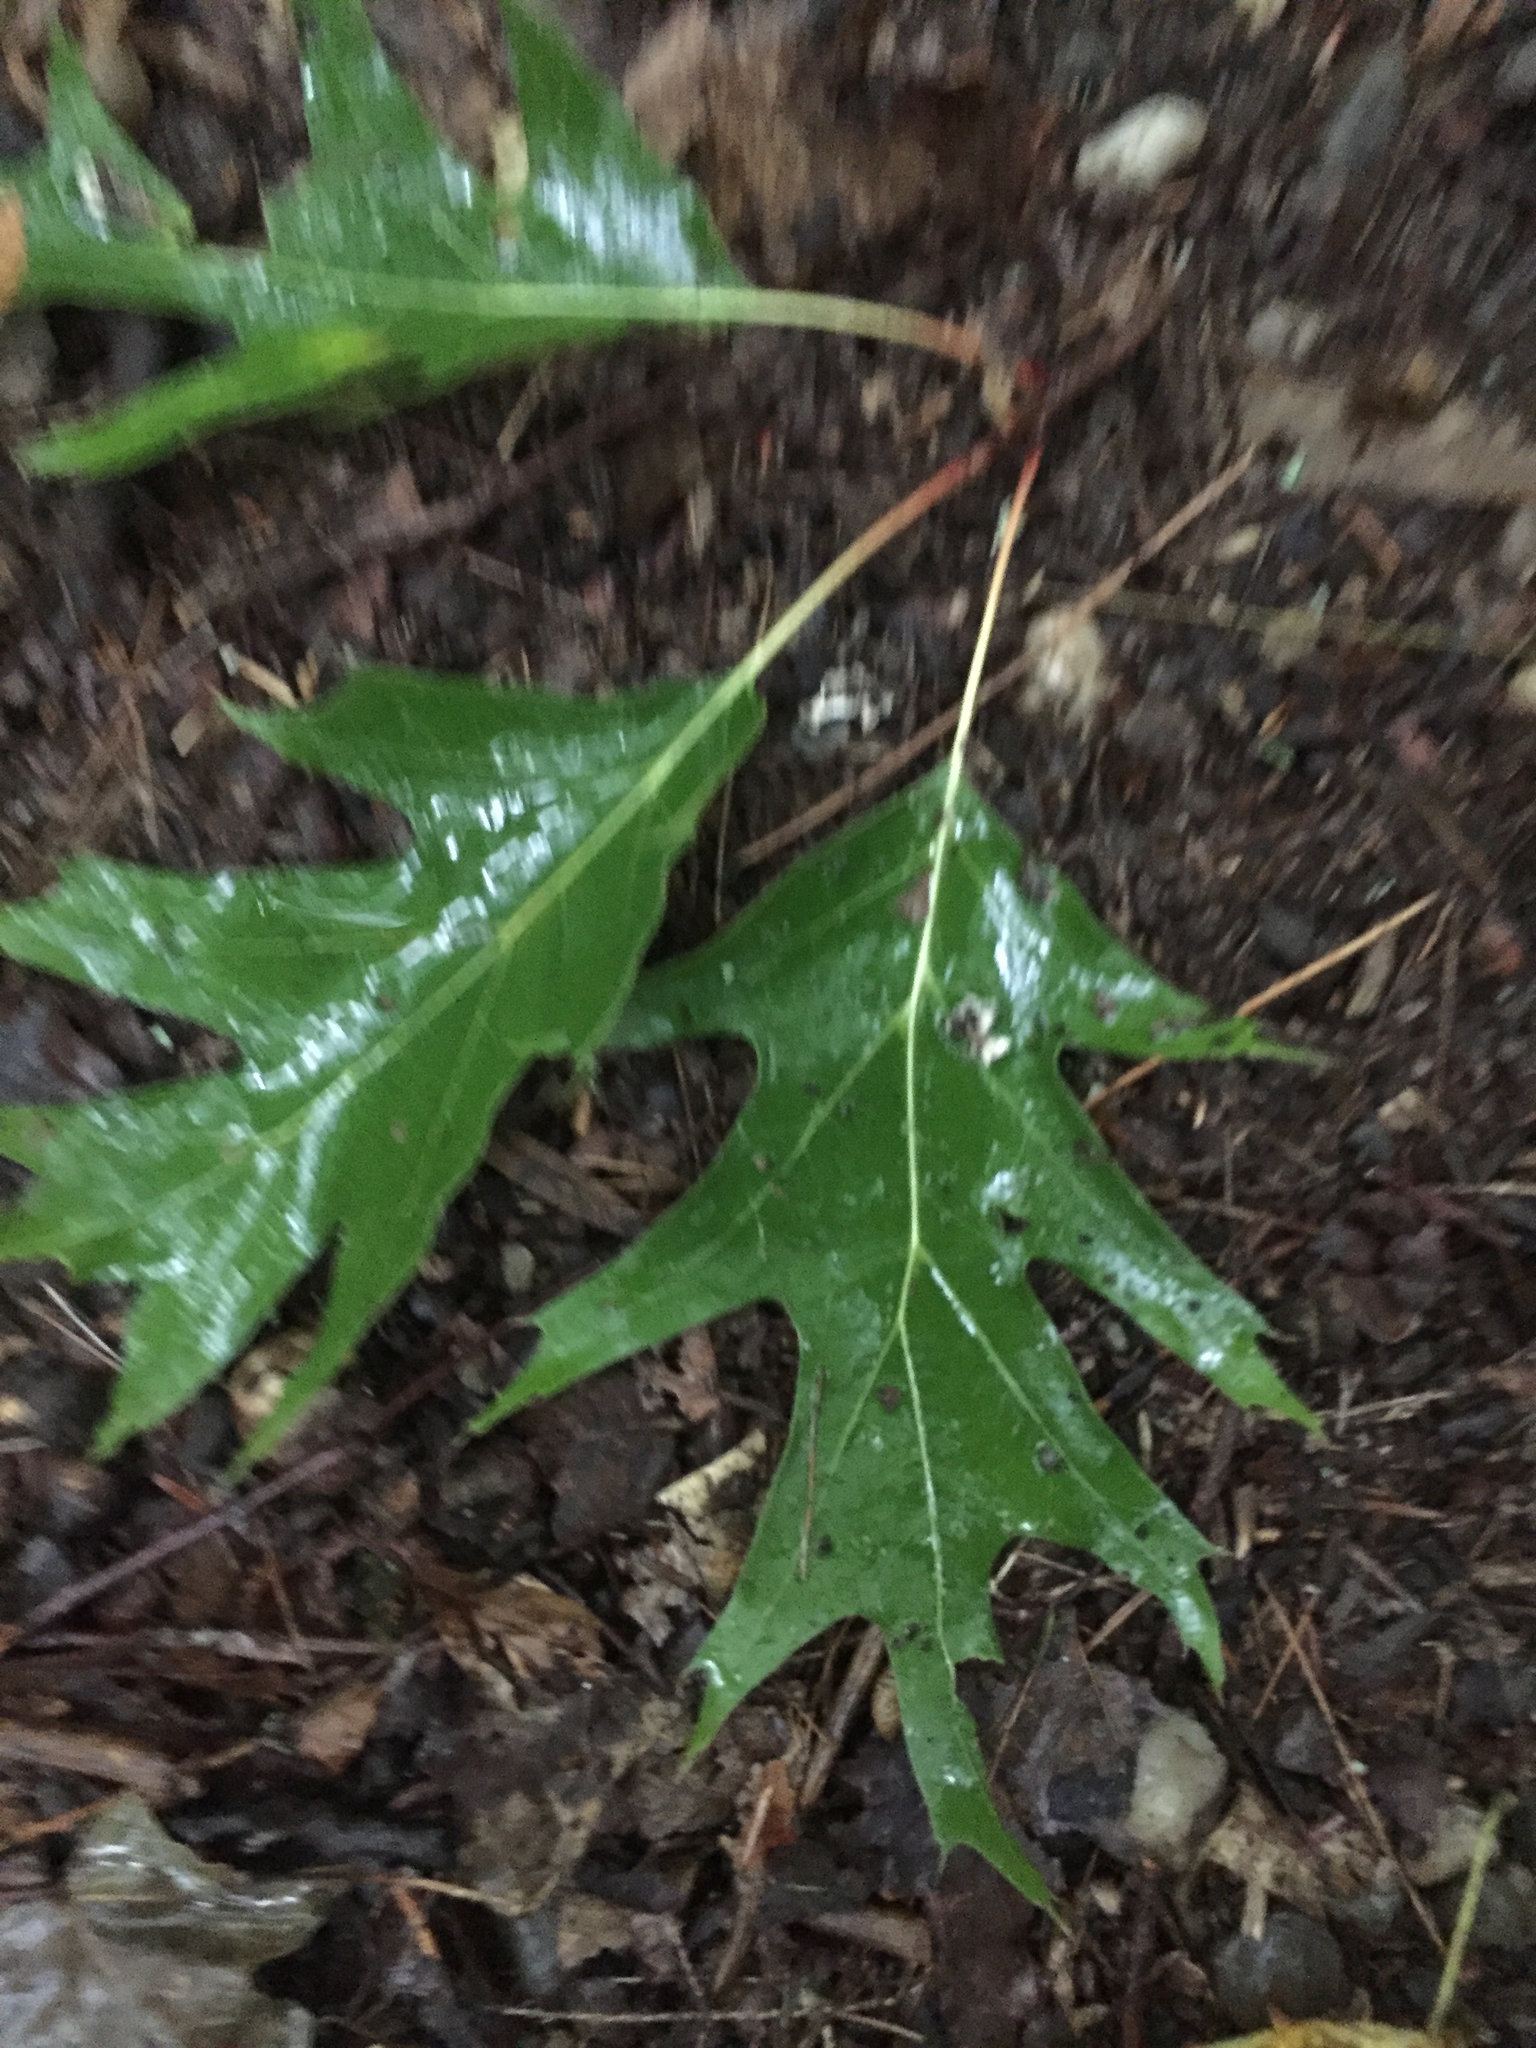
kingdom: Plantae
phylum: Tracheophyta
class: Magnoliopsida
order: Fagales
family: Fagaceae
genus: Quercus
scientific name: Quercus rubra
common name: Red oak
